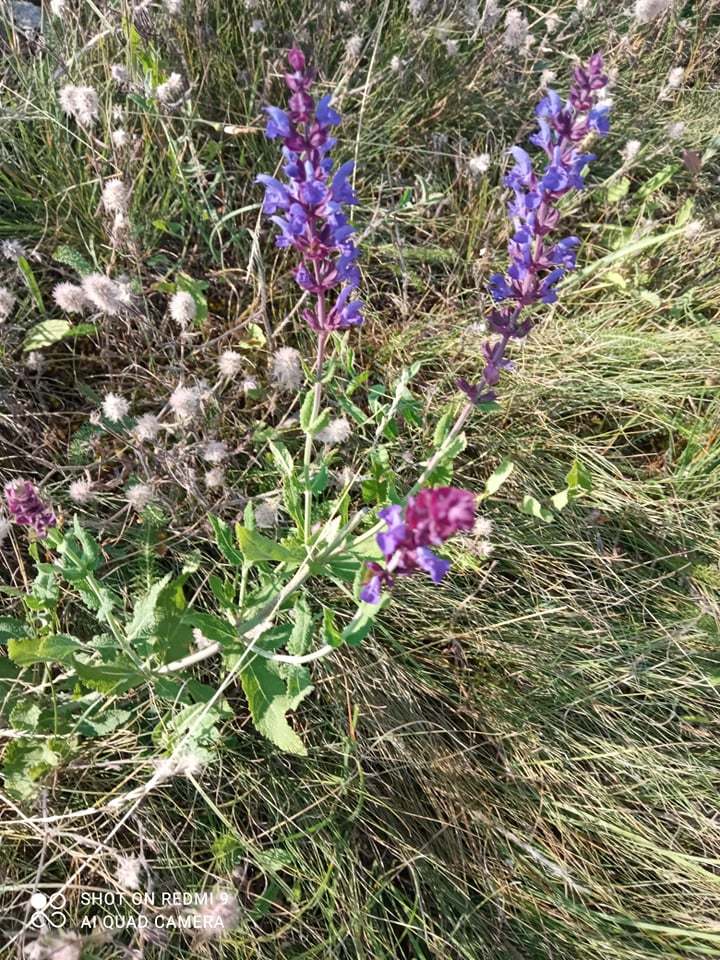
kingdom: Plantae
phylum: Tracheophyta
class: Magnoliopsida
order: Lamiales
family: Lamiaceae
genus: Salvia
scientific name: Salvia nemorosa
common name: Balkan clary
